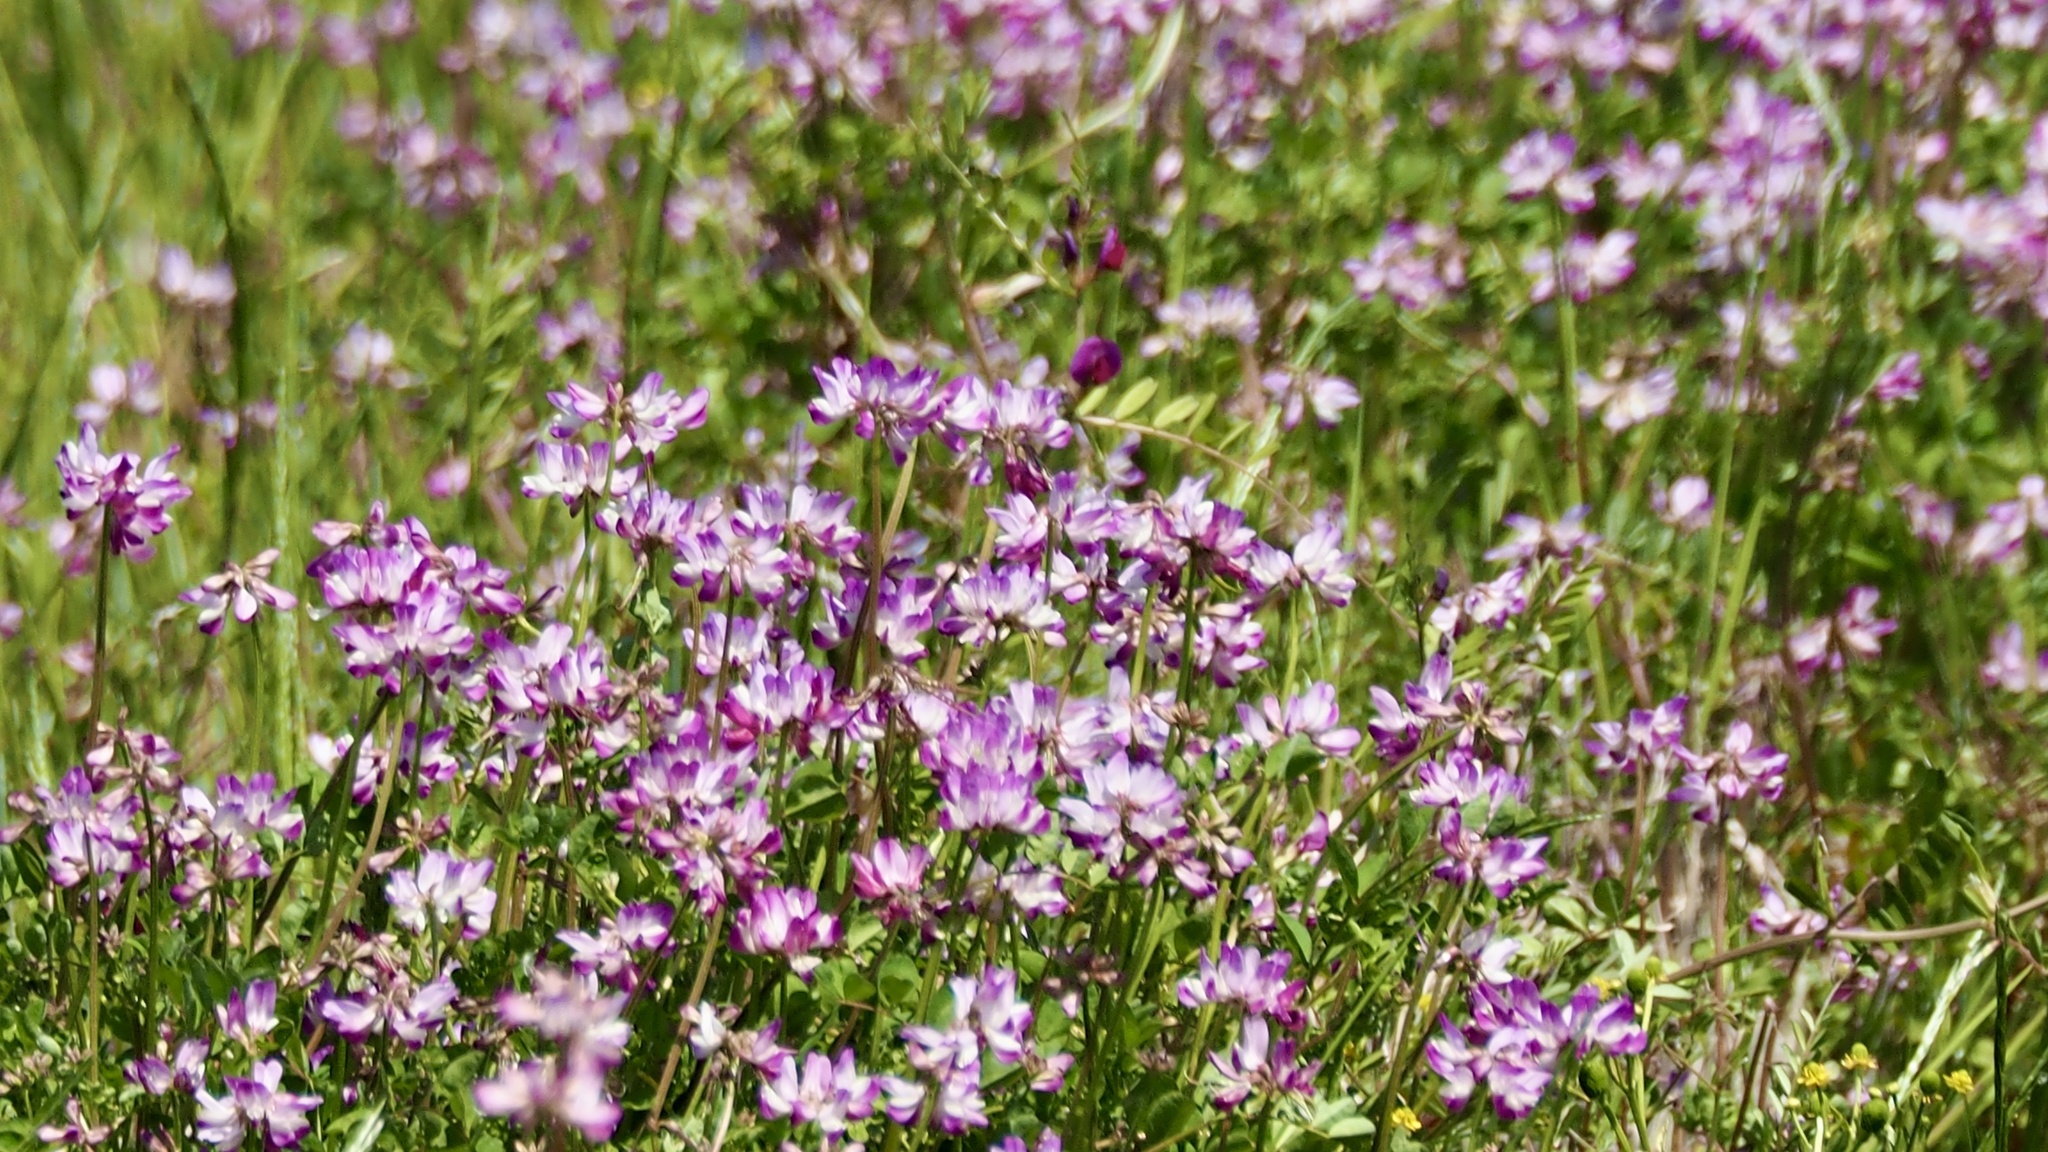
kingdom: Plantae
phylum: Tracheophyta
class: Magnoliopsida
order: Fabales
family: Fabaceae
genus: Astragalus
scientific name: Astragalus sinicus
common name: Chinese milk-vetch
